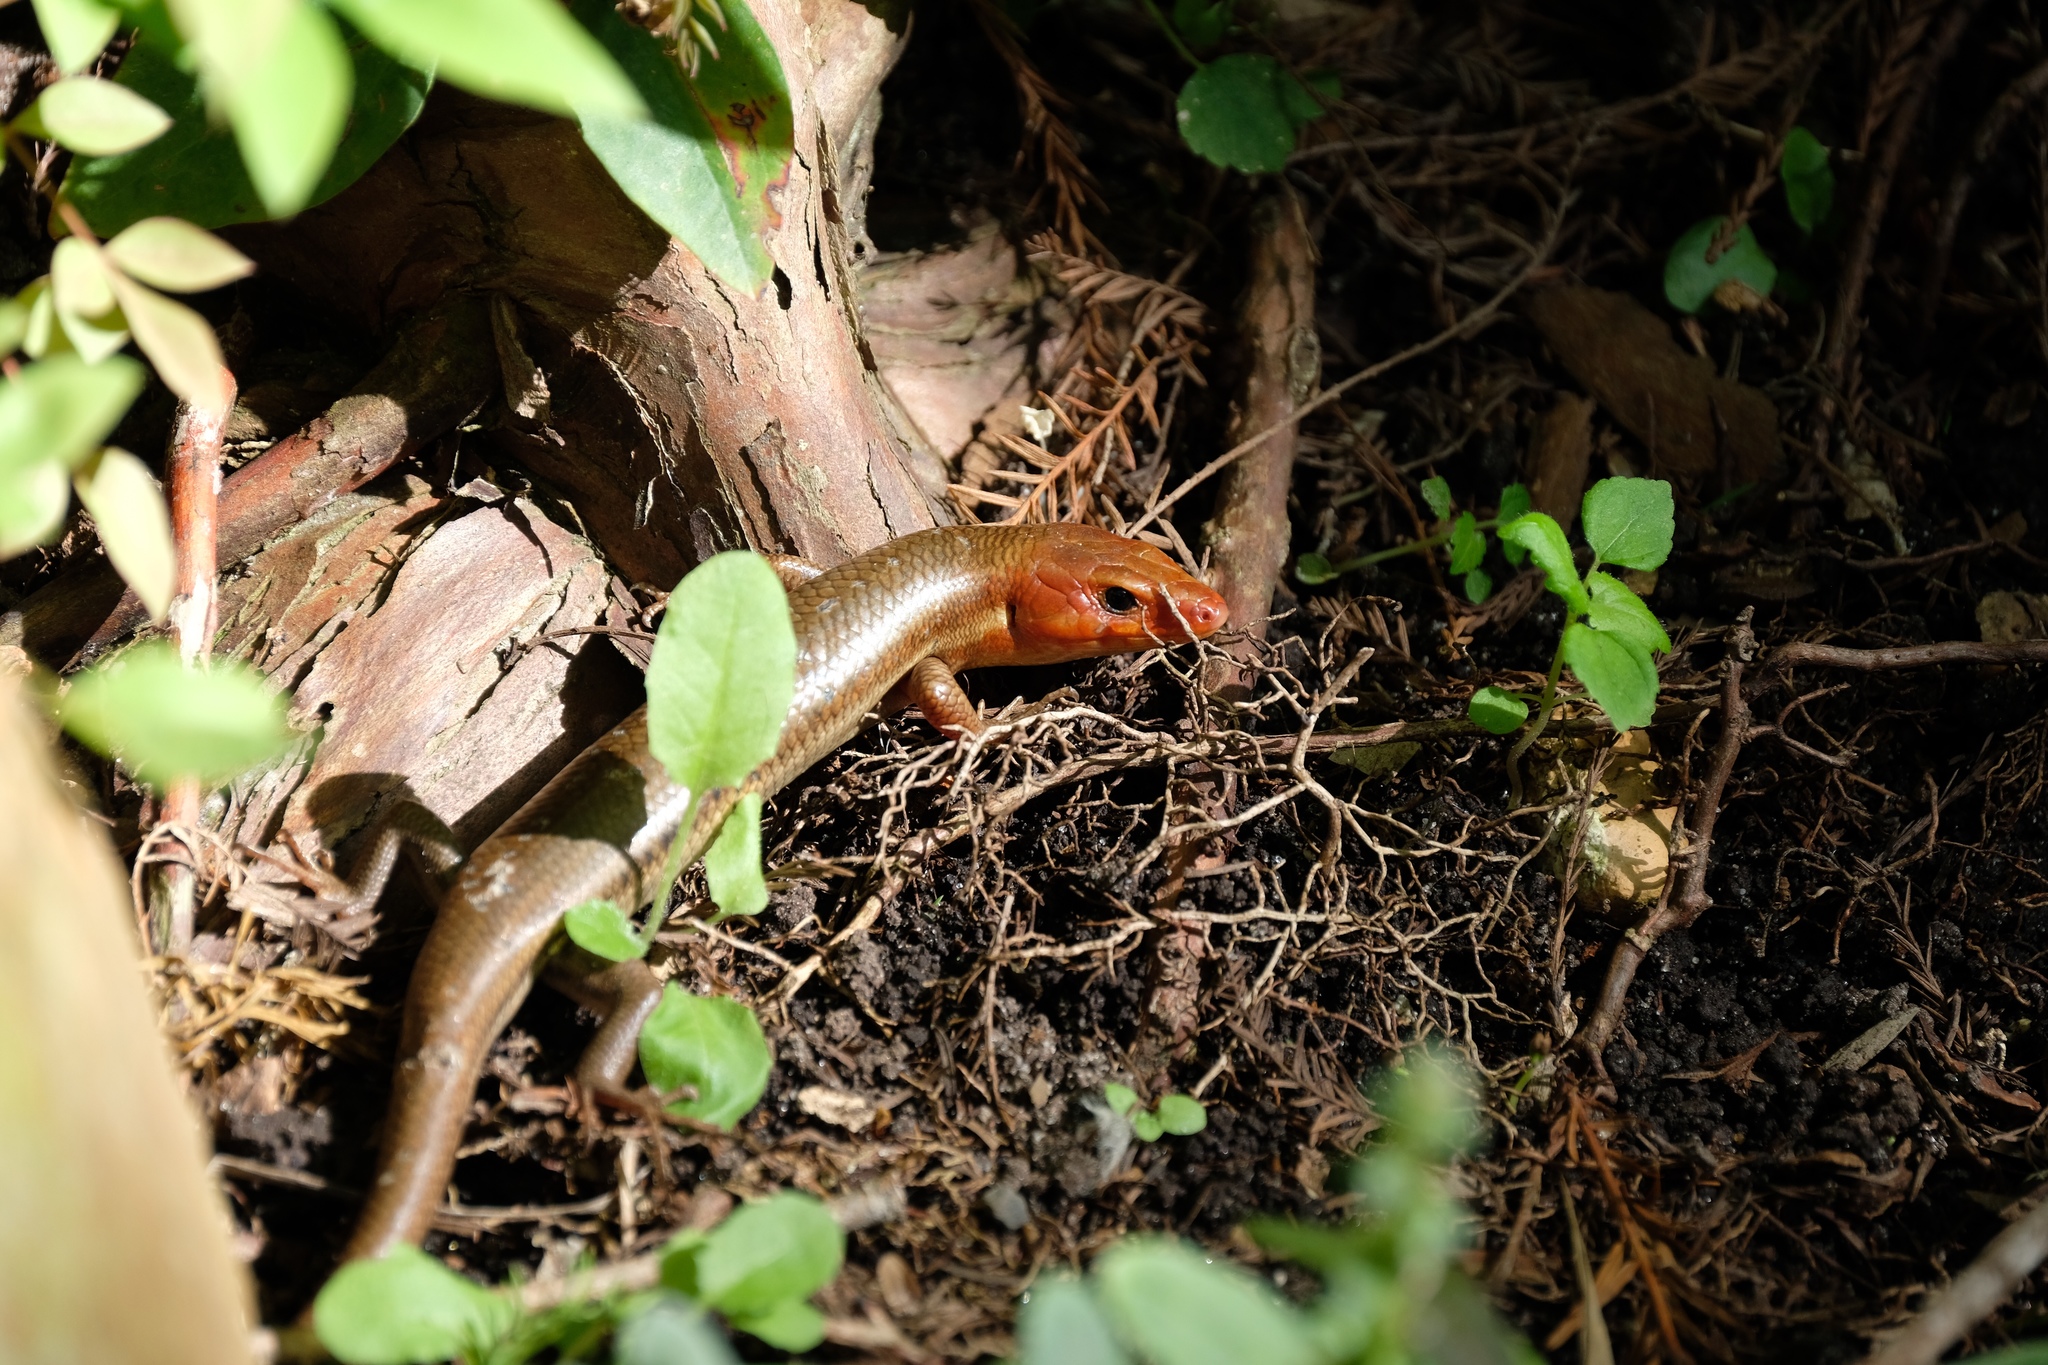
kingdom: Animalia
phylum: Chordata
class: Squamata
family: Scincidae
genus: Plestiodon
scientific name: Plestiodon laticeps
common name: Broadhead skink
